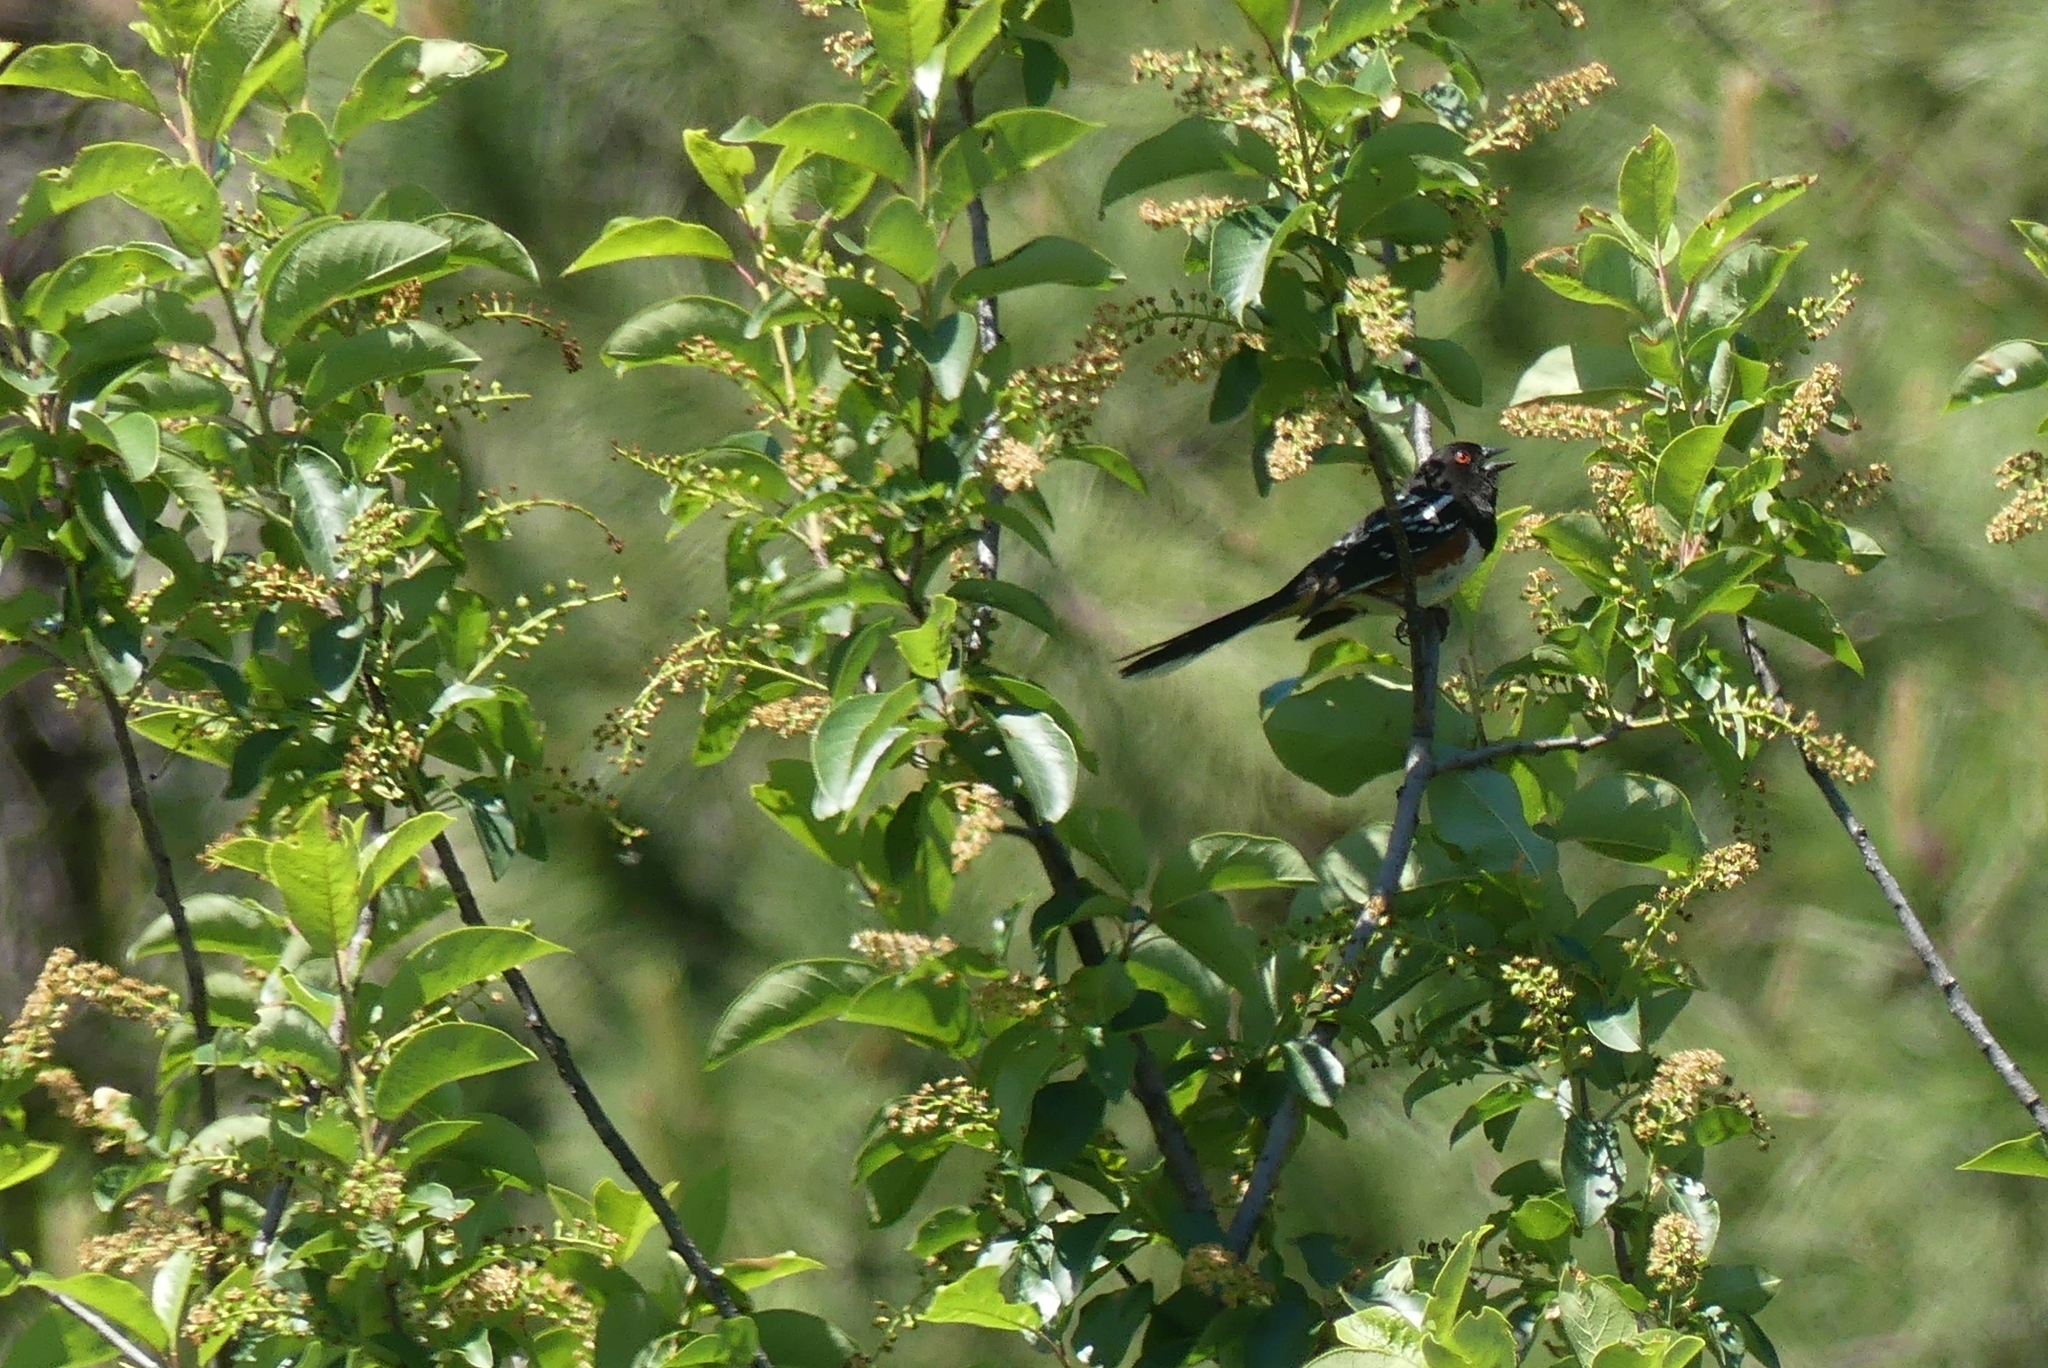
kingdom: Animalia
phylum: Chordata
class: Aves
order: Passeriformes
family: Passerellidae
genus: Pipilo
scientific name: Pipilo maculatus
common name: Spotted towhee
